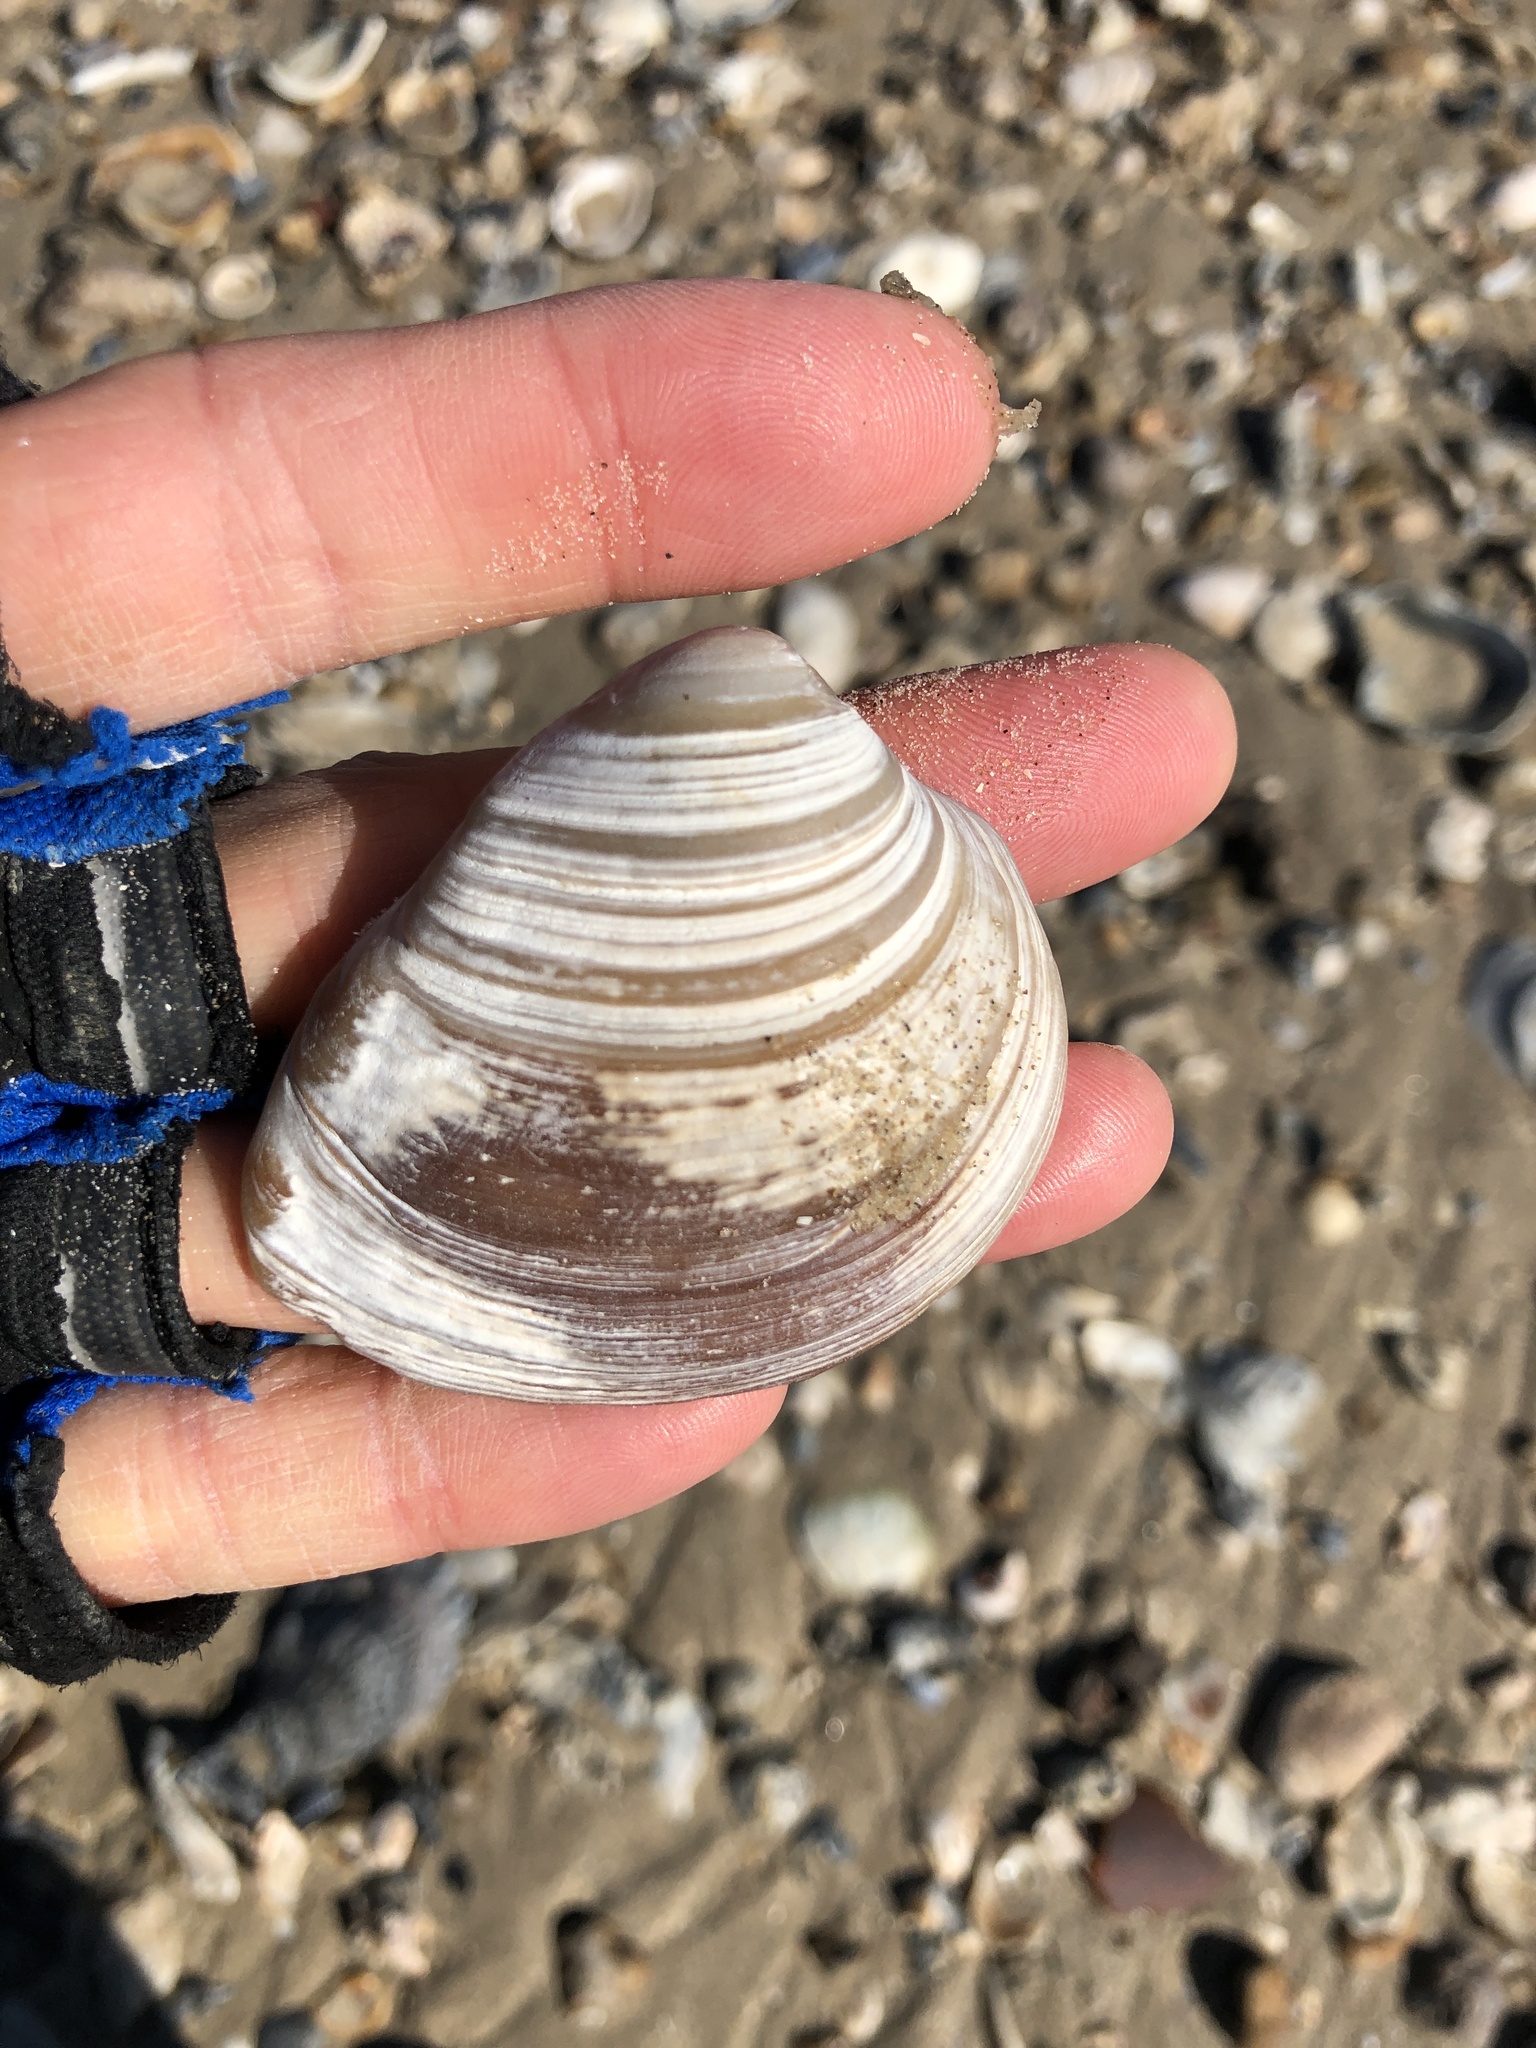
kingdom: Animalia
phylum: Mollusca
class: Bivalvia
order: Venerida
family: Mactridae
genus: Rangia
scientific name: Rangia cuneata
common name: Atlantic rangia
